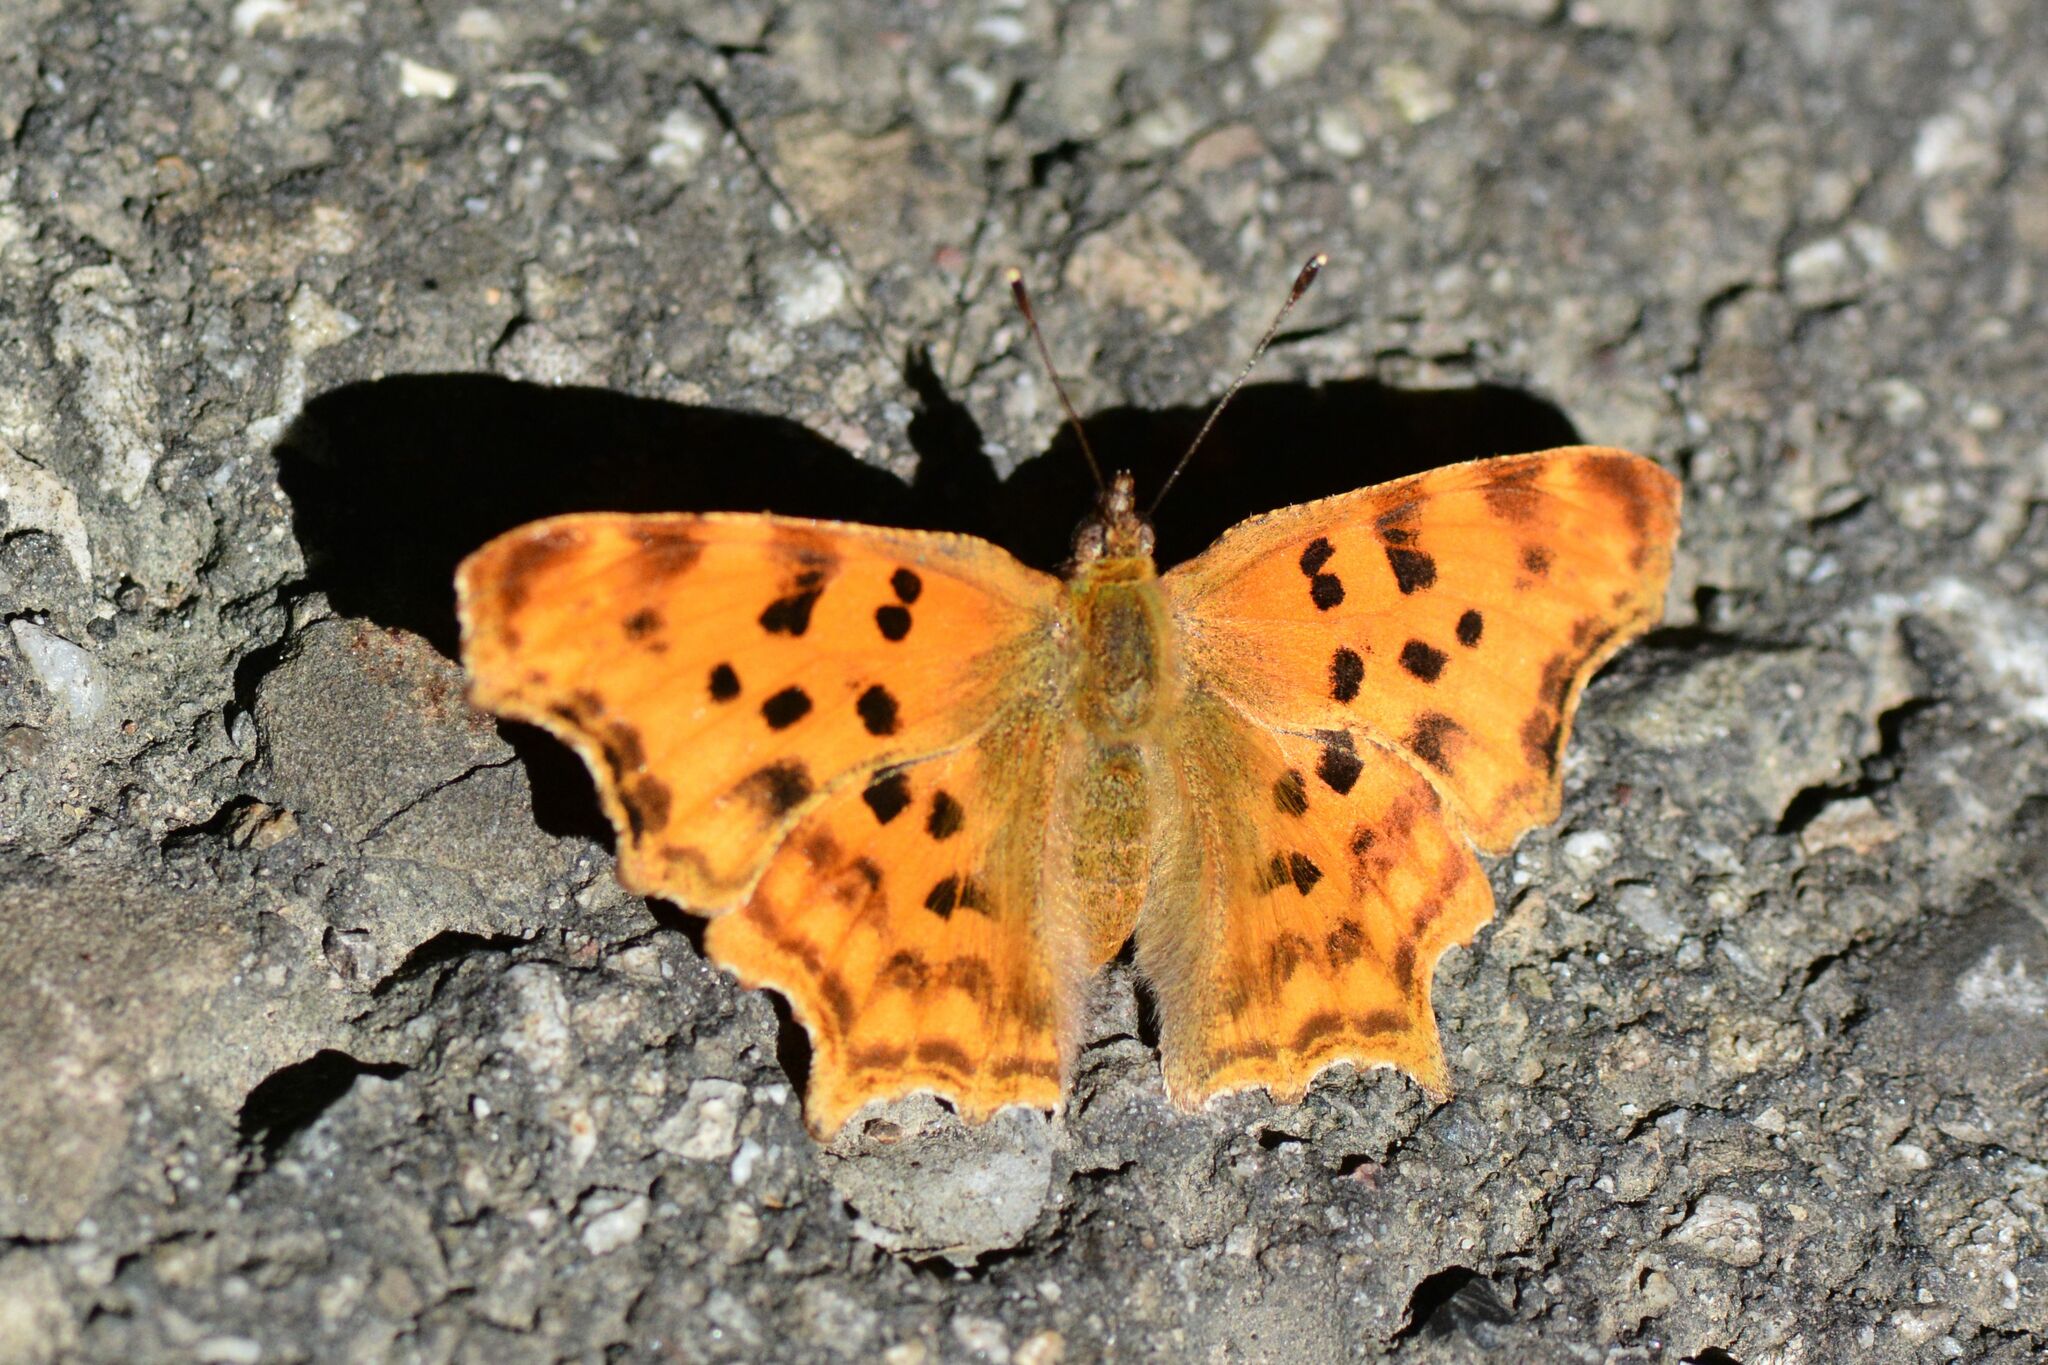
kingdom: Animalia
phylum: Arthropoda
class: Insecta
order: Lepidoptera
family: Nymphalidae
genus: Polygonia
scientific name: Polygonia c-album
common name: Comma
